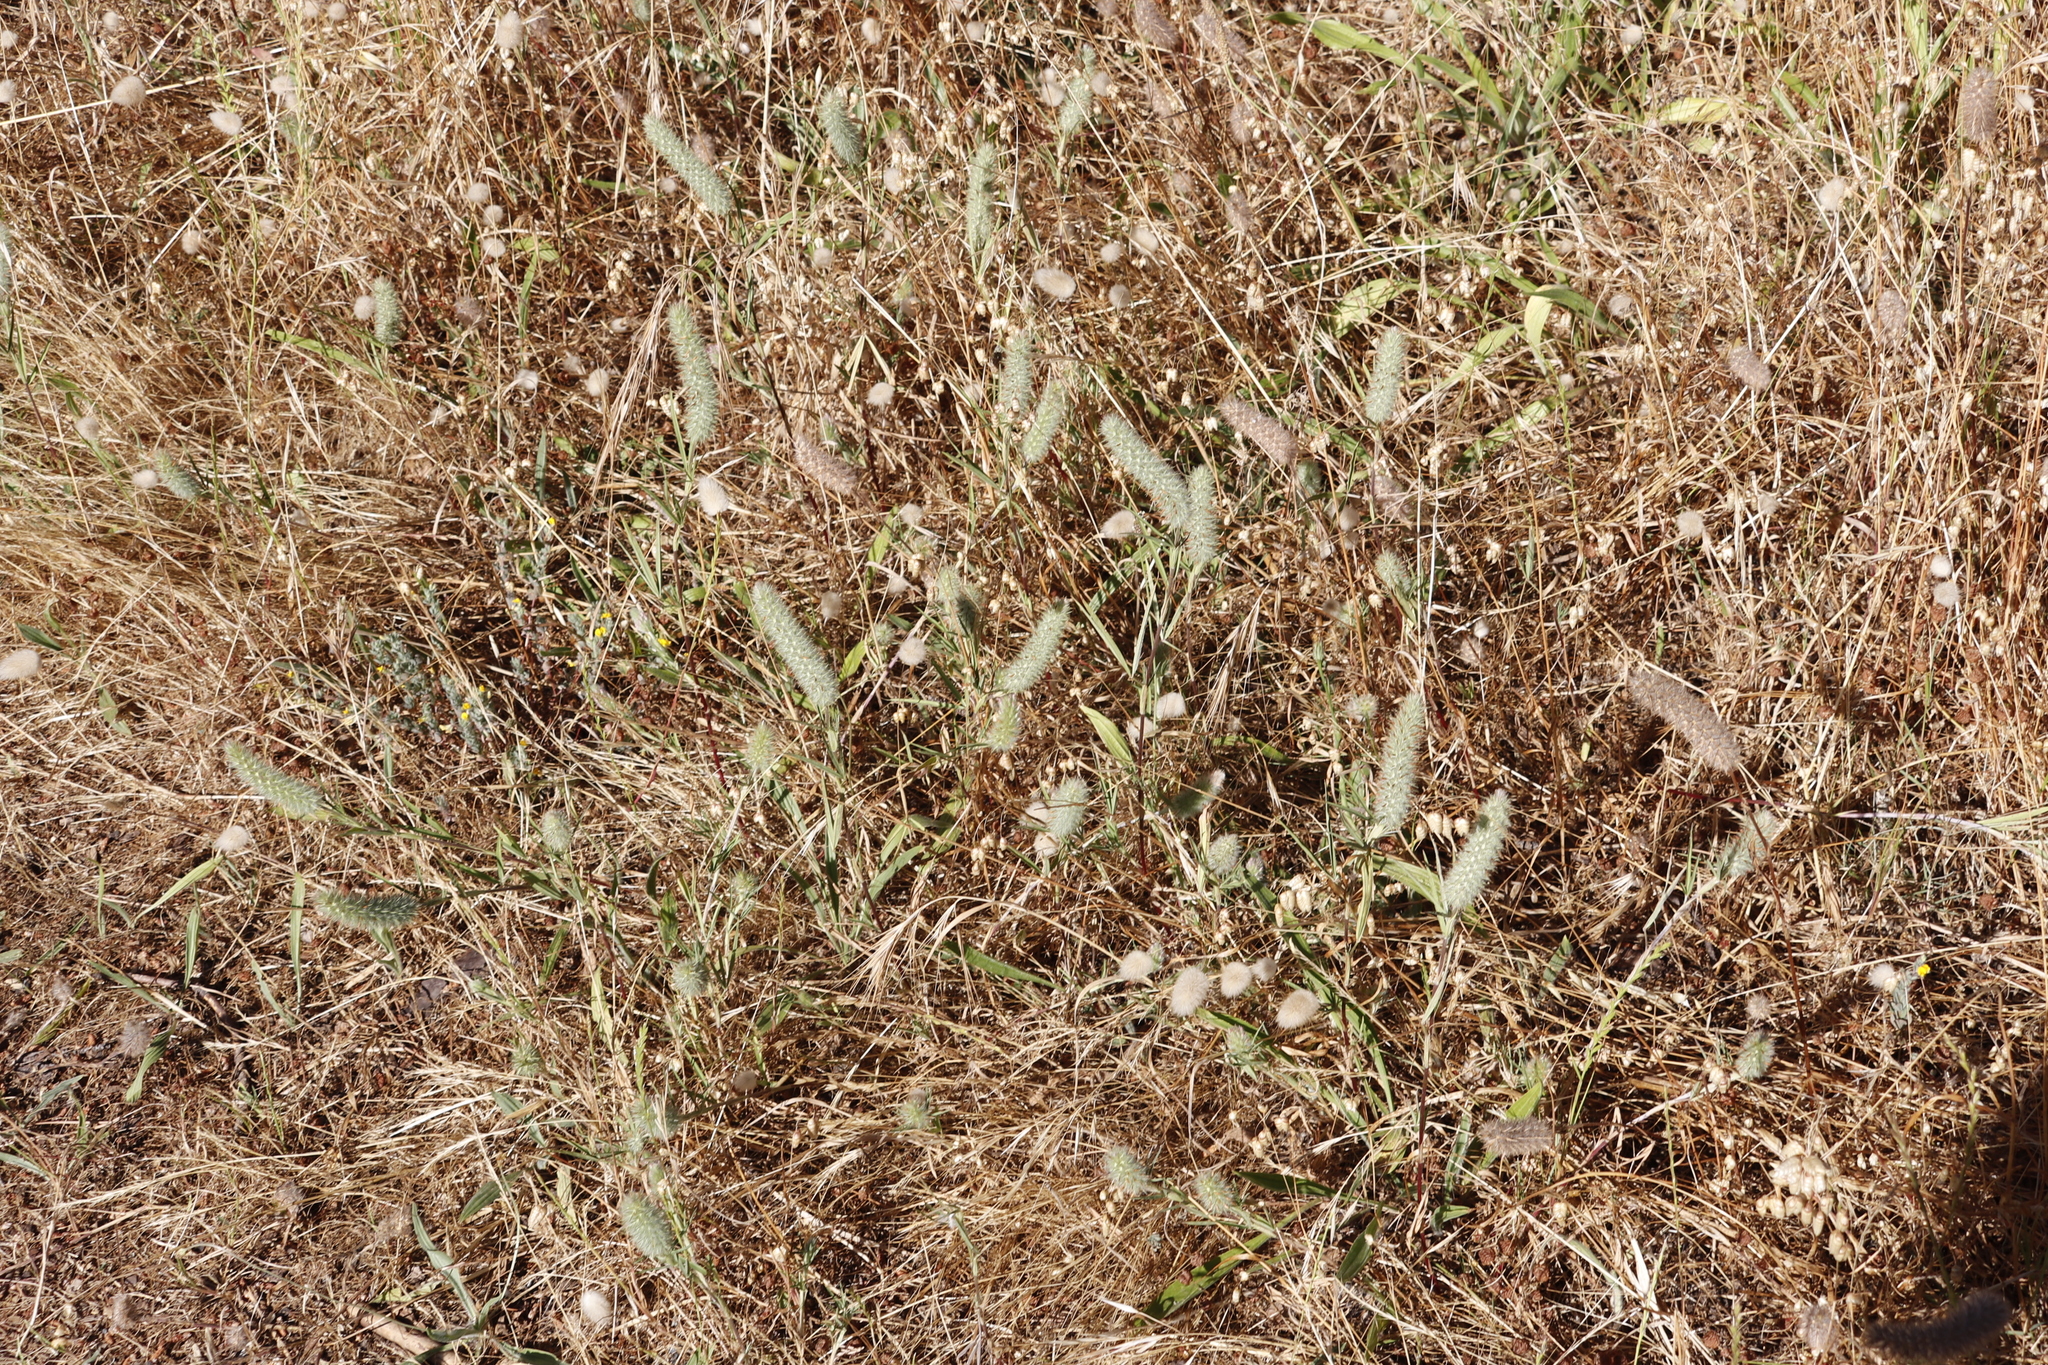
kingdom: Plantae
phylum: Tracheophyta
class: Liliopsida
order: Poales
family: Poaceae
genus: Lagurus
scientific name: Lagurus ovatus
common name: Hare's-tail
